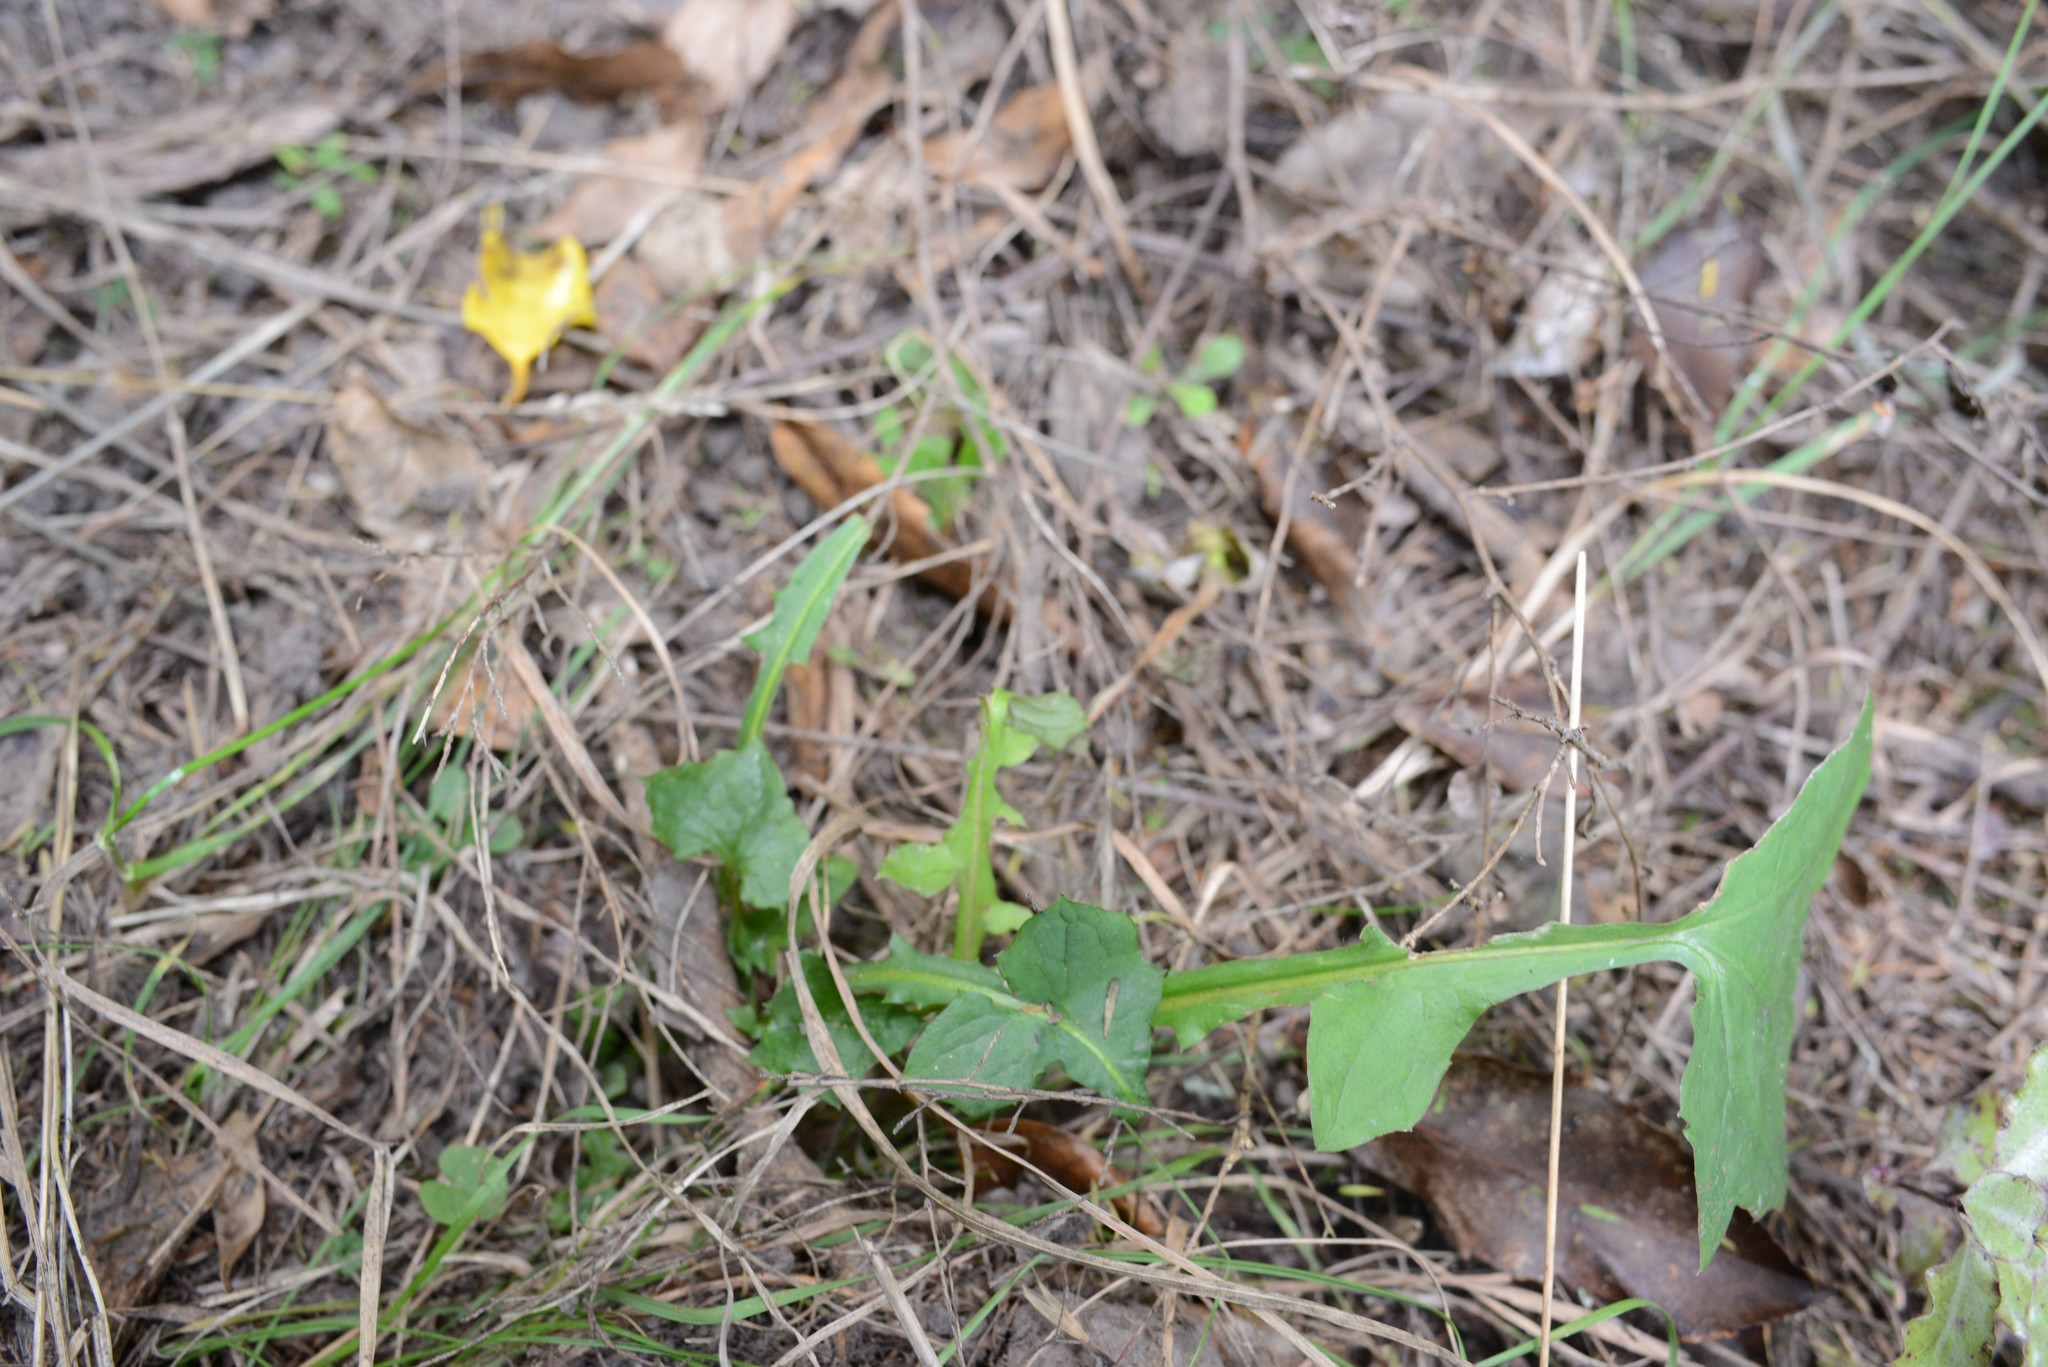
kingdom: Plantae
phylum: Tracheophyta
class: Magnoliopsida
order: Asterales
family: Asteraceae
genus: Mycelis
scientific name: Mycelis muralis
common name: Wall lettuce
